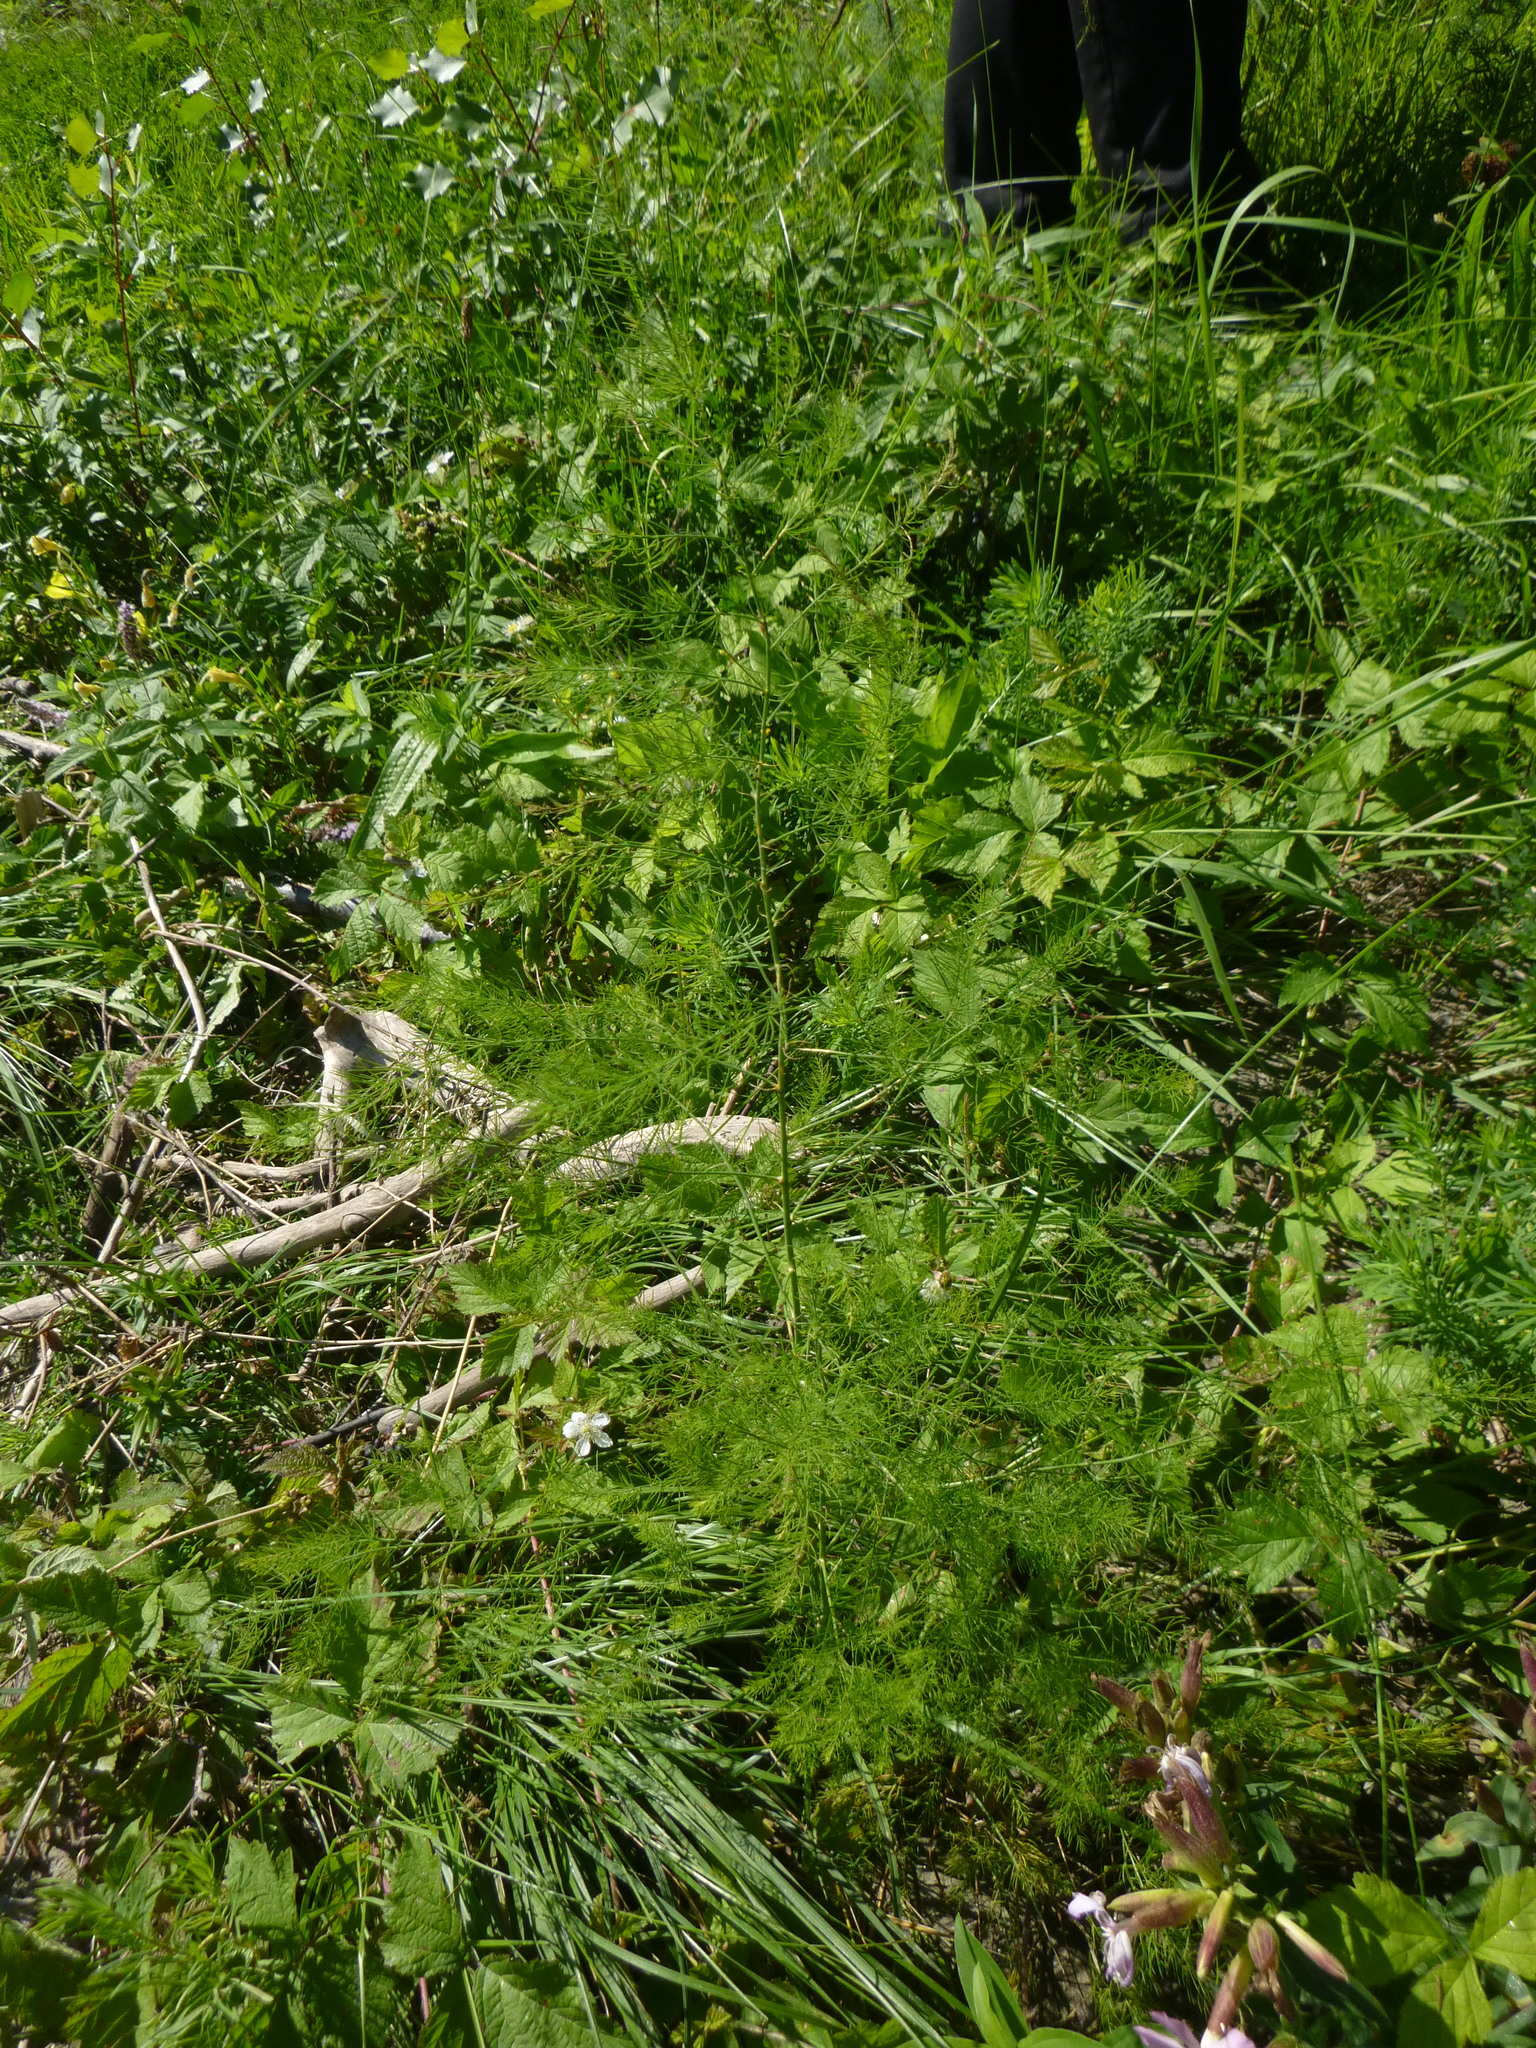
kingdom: Plantae
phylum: Tracheophyta
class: Liliopsida
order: Asparagales
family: Asparagaceae
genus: Asparagus
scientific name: Asparagus officinalis
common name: Garden asparagus
